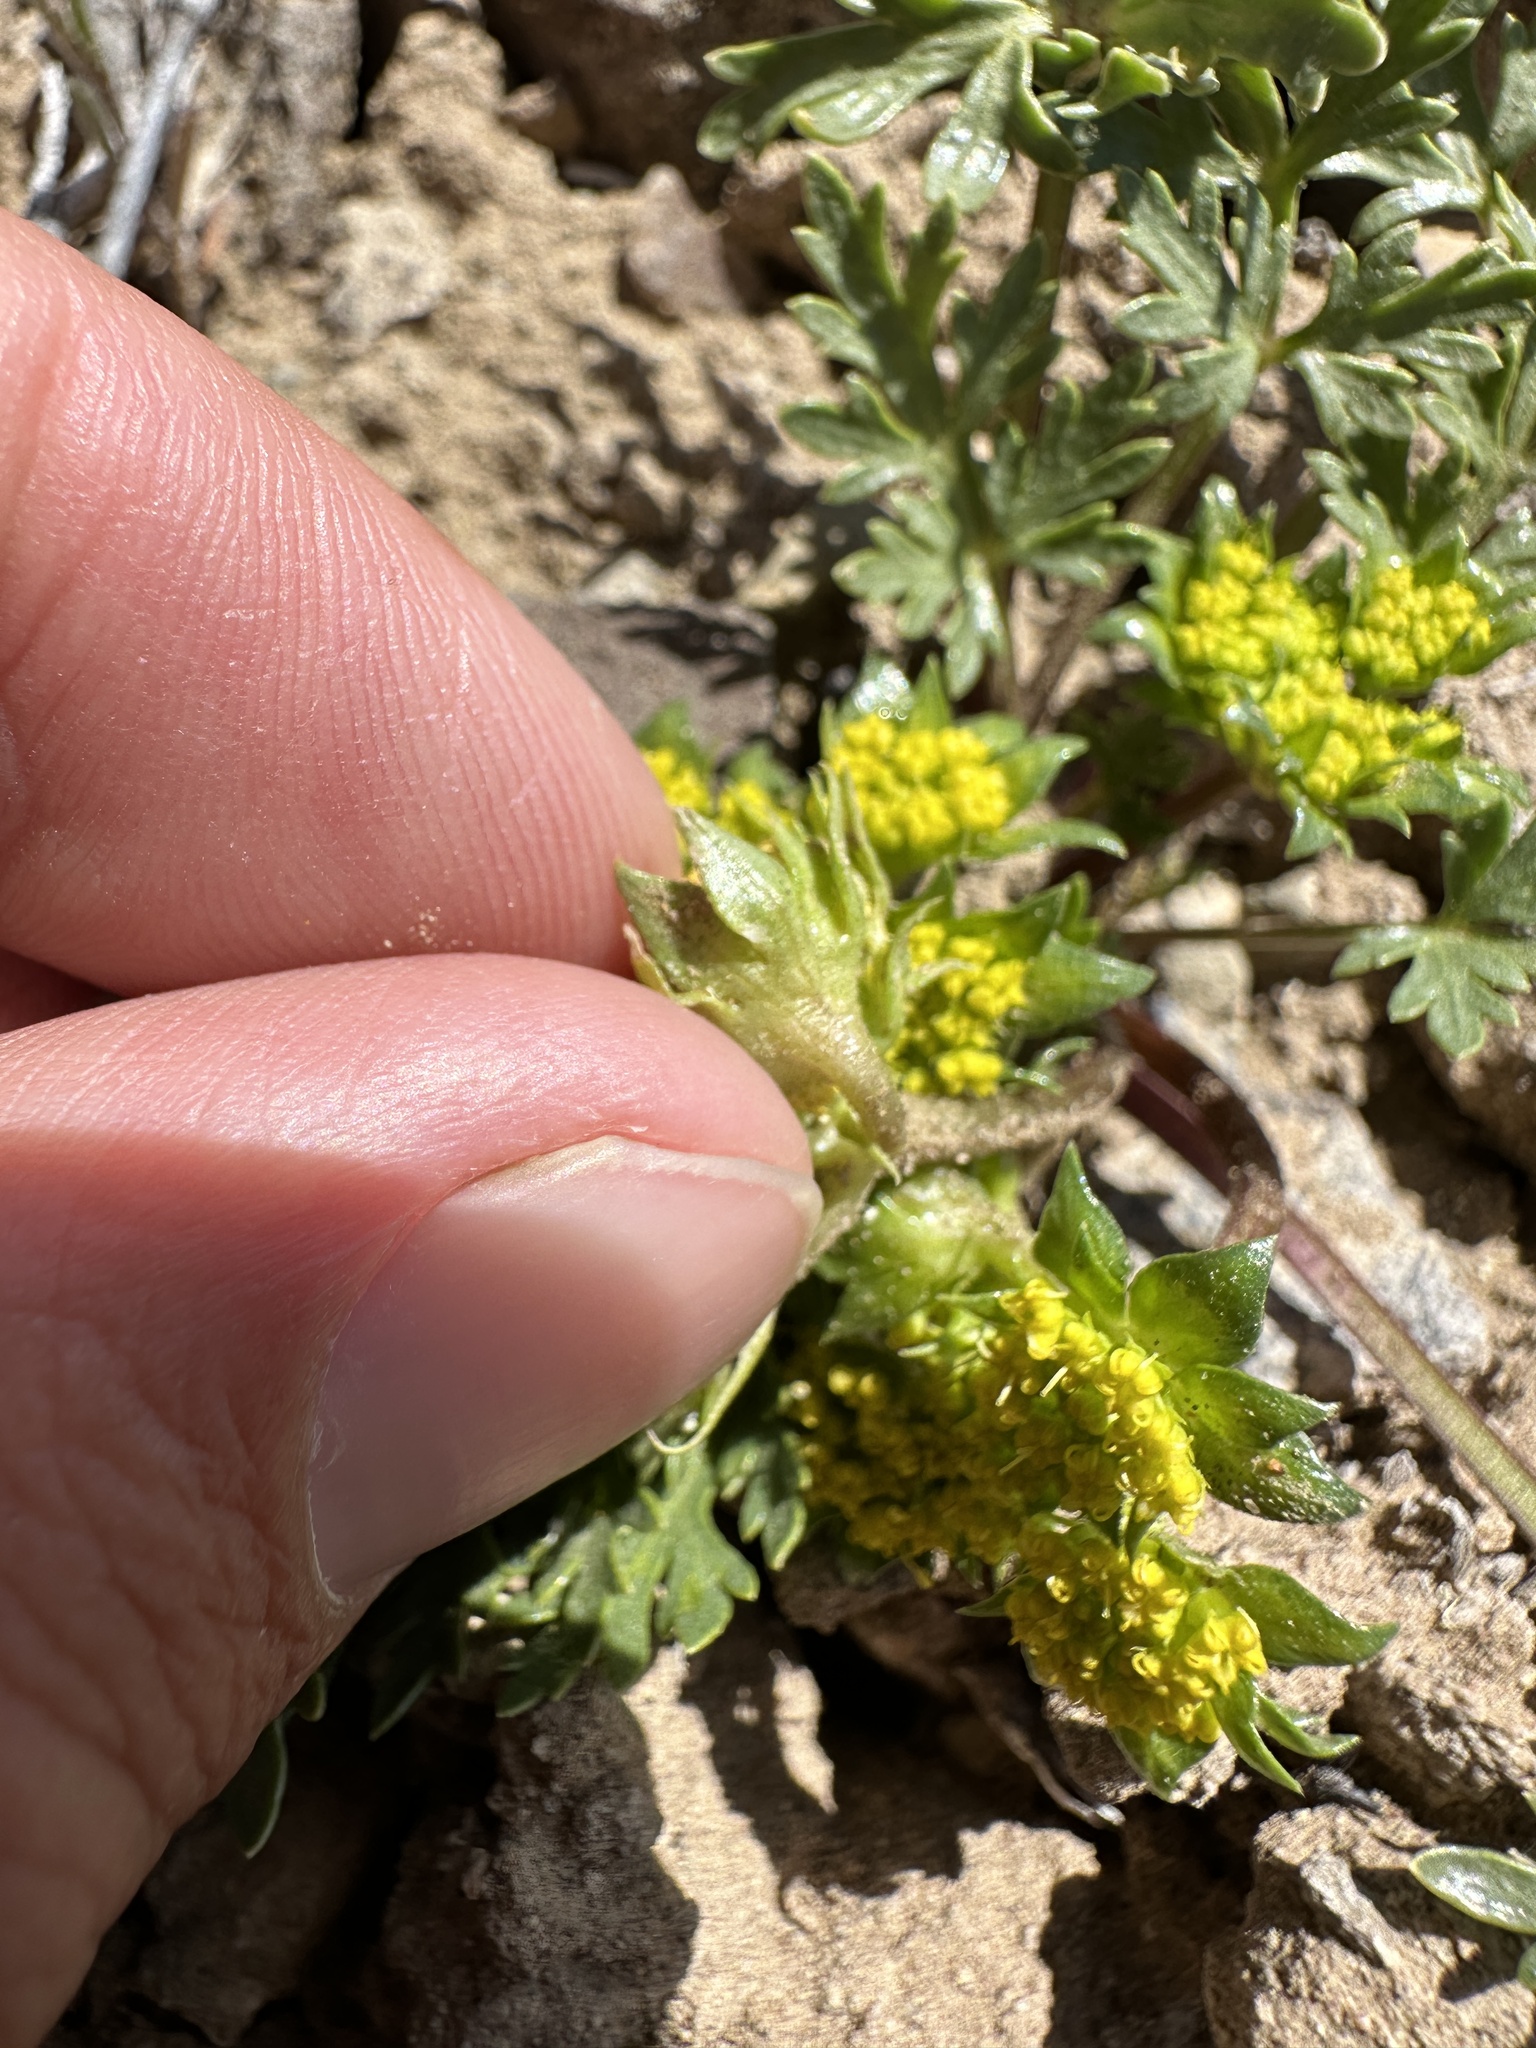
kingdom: Plantae
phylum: Tracheophyta
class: Magnoliopsida
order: Apiales
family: Apiaceae
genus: Cymopterus
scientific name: Cymopterus glomeratus
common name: Plains spring parsley
